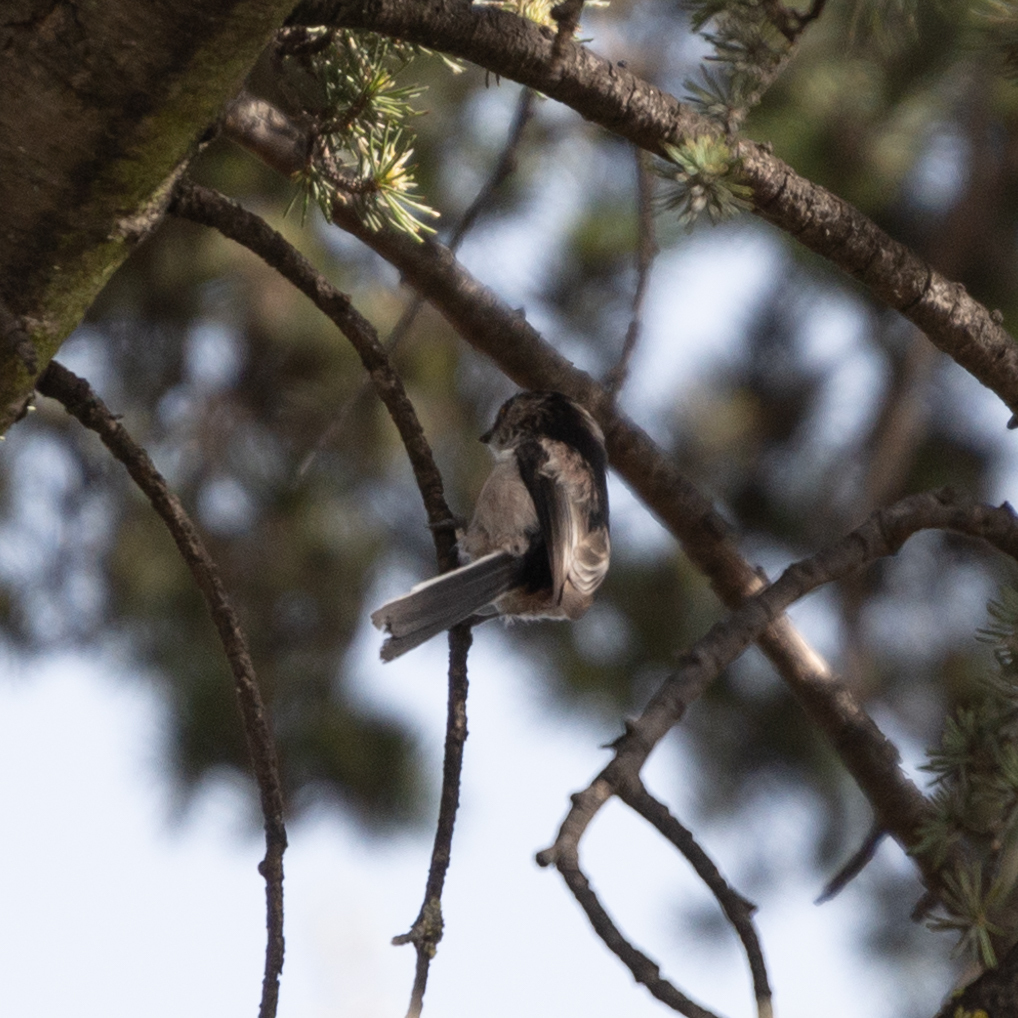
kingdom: Animalia
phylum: Chordata
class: Aves
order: Passeriformes
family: Aegithalidae
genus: Aegithalos
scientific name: Aegithalos caudatus
